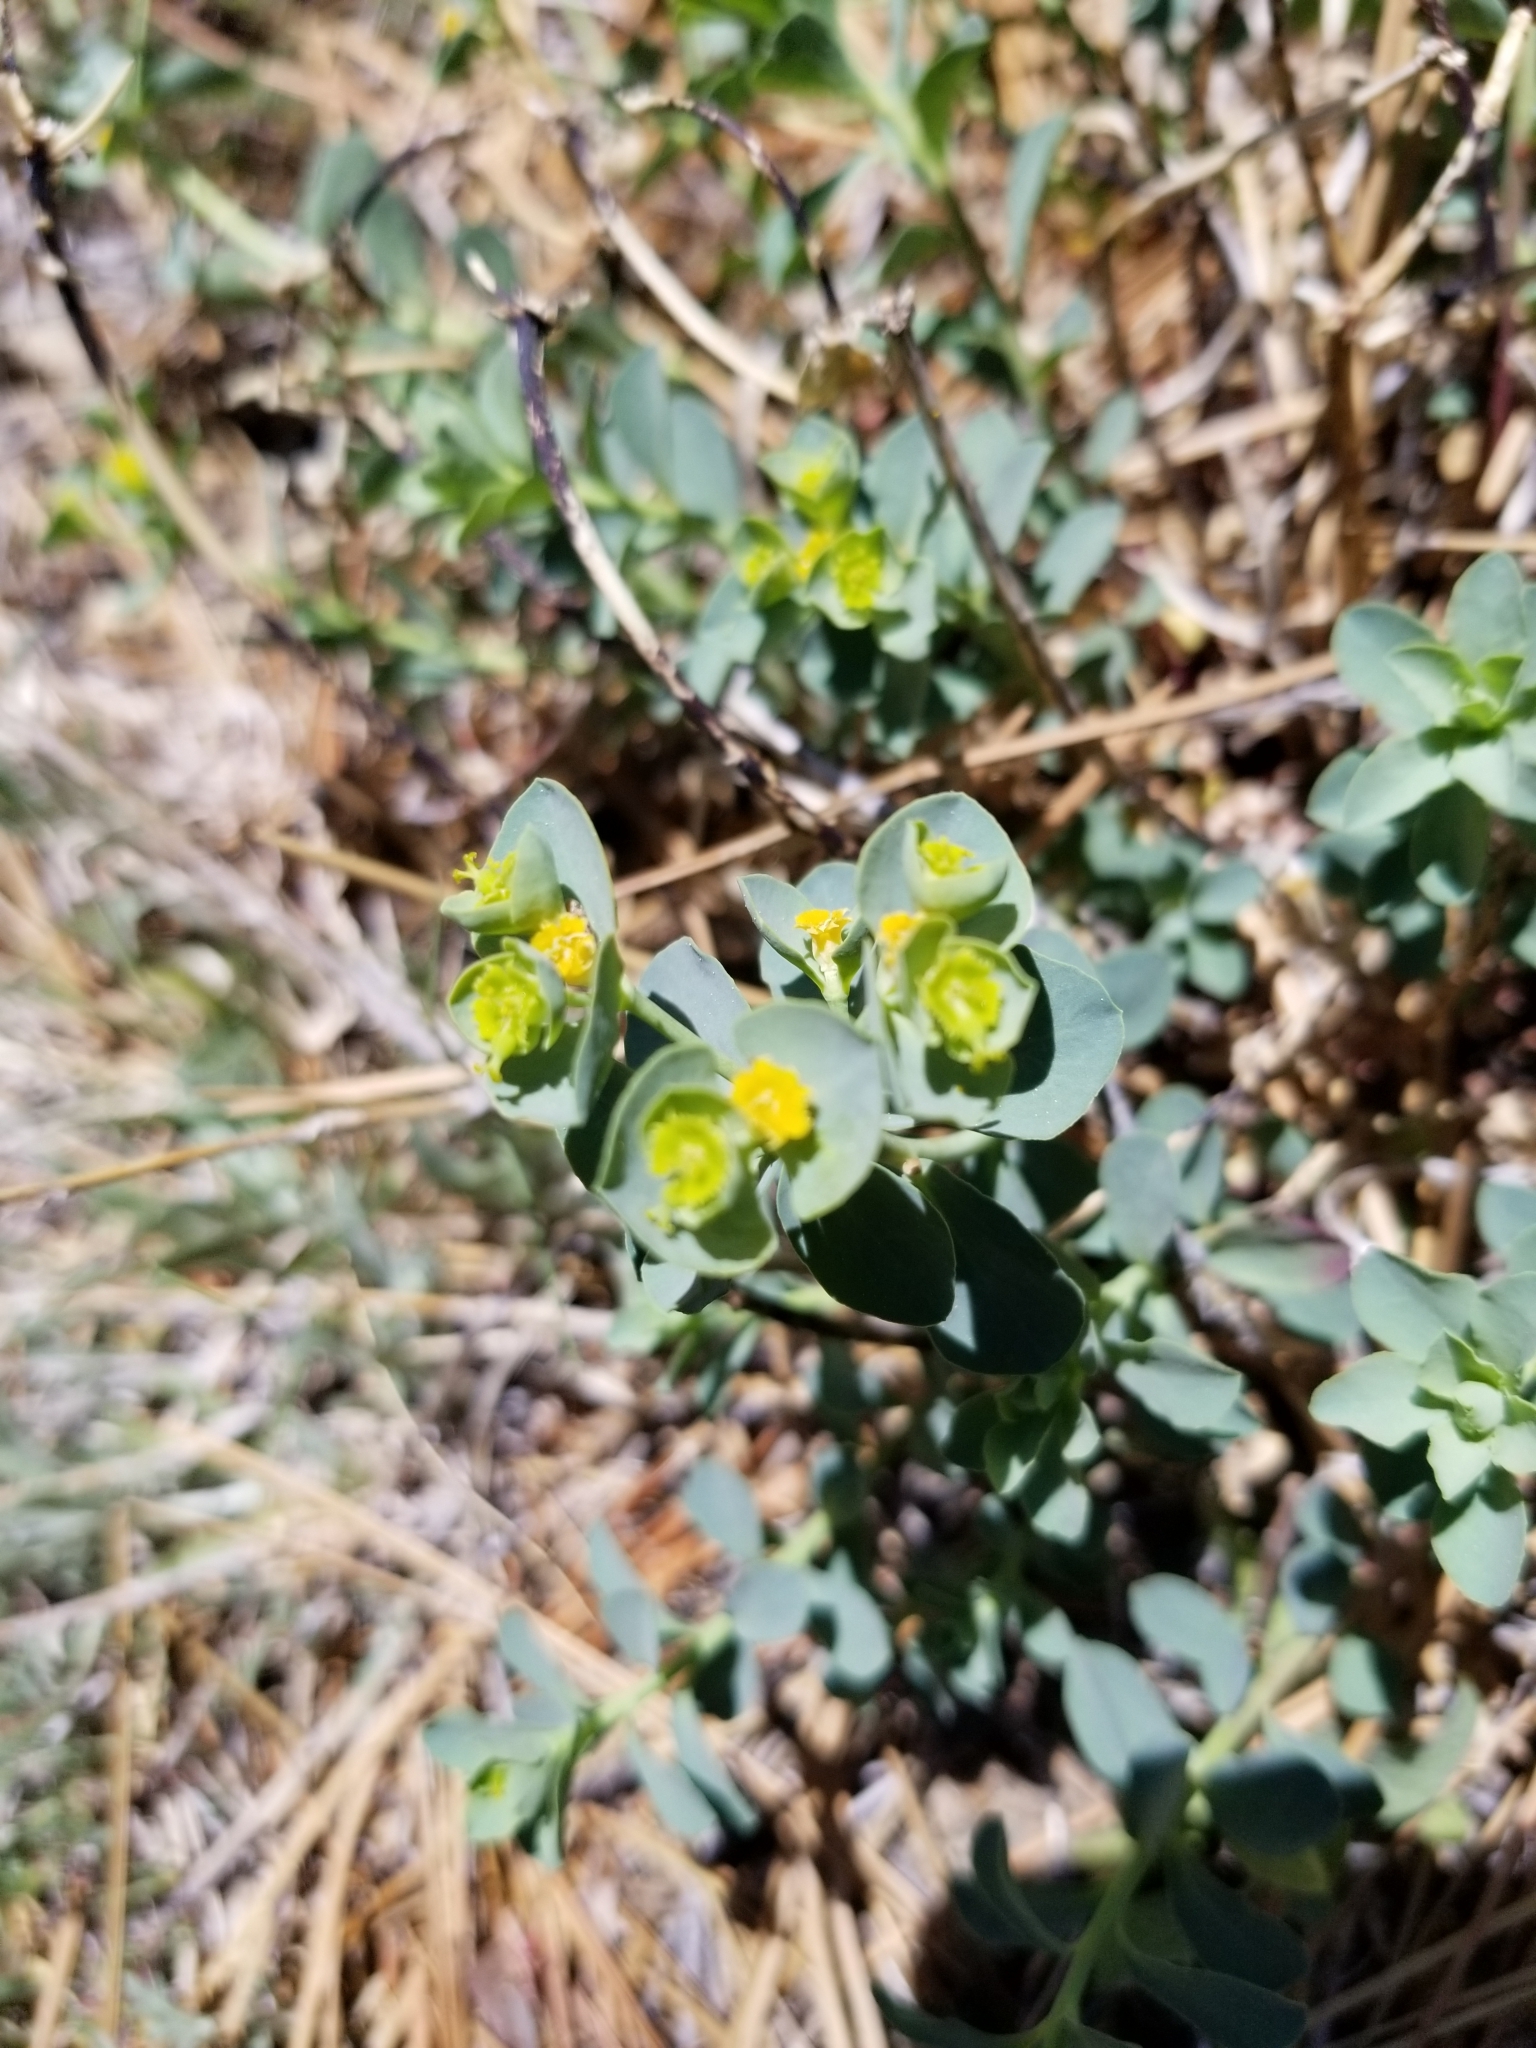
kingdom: Plantae
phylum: Tracheophyta
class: Magnoliopsida
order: Malpighiales
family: Euphorbiaceae
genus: Euphorbia
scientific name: Euphorbia lurida
